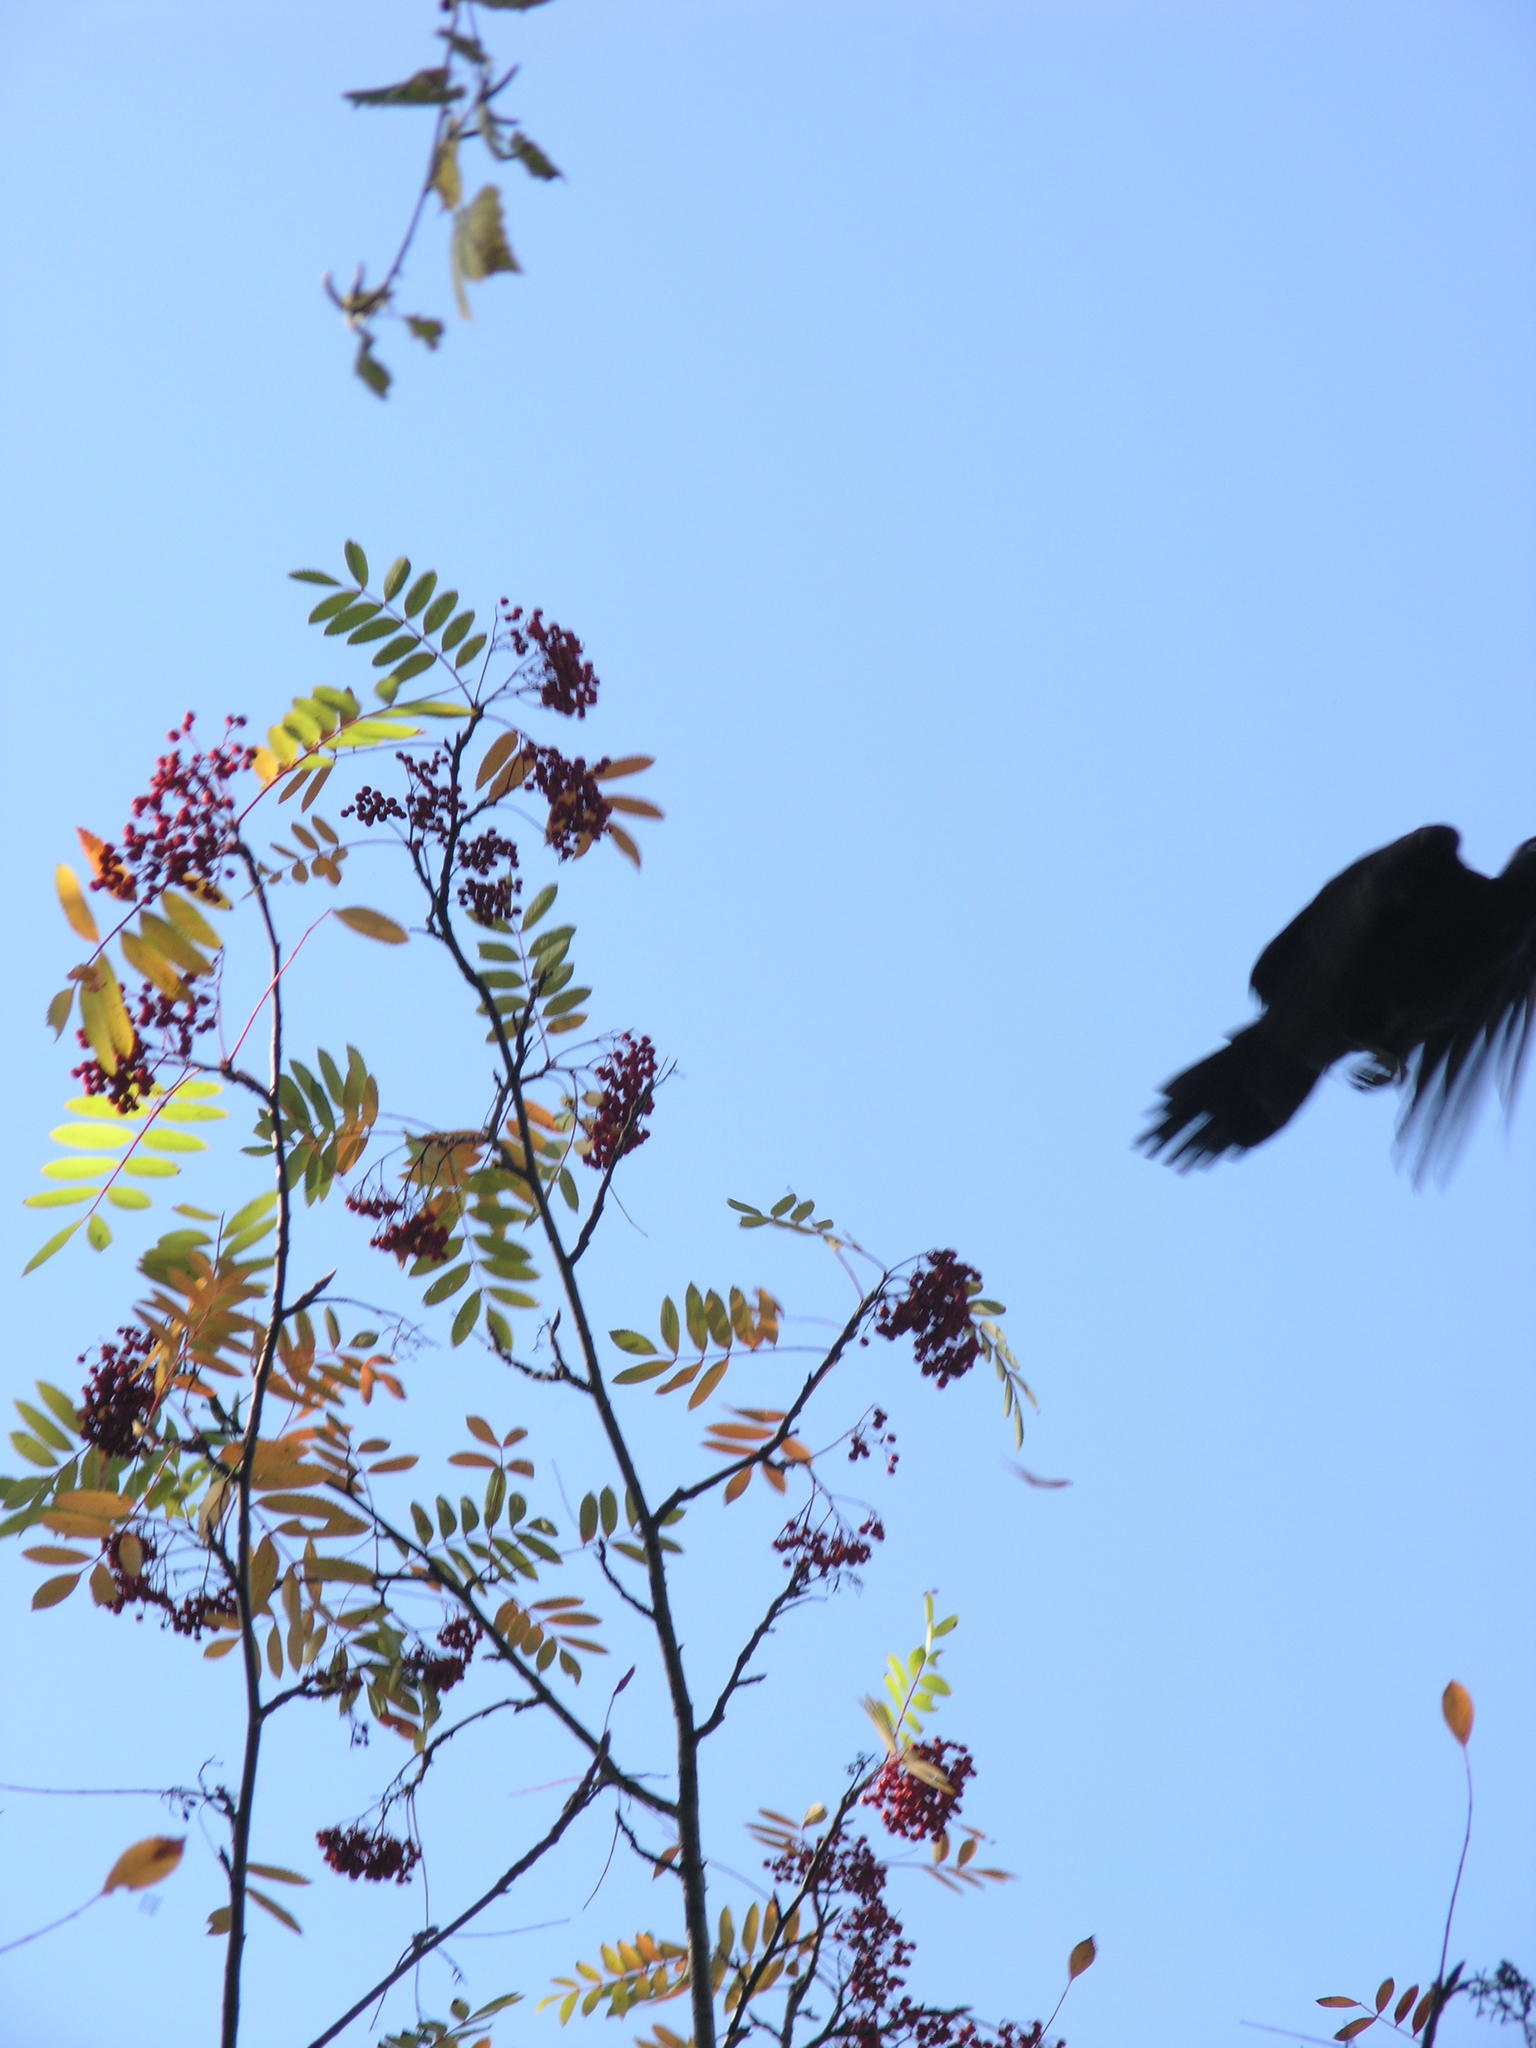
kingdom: Animalia
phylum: Chordata
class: Aves
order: Piciformes
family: Picidae
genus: Dryocopus
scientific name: Dryocopus martius
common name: Black woodpecker
